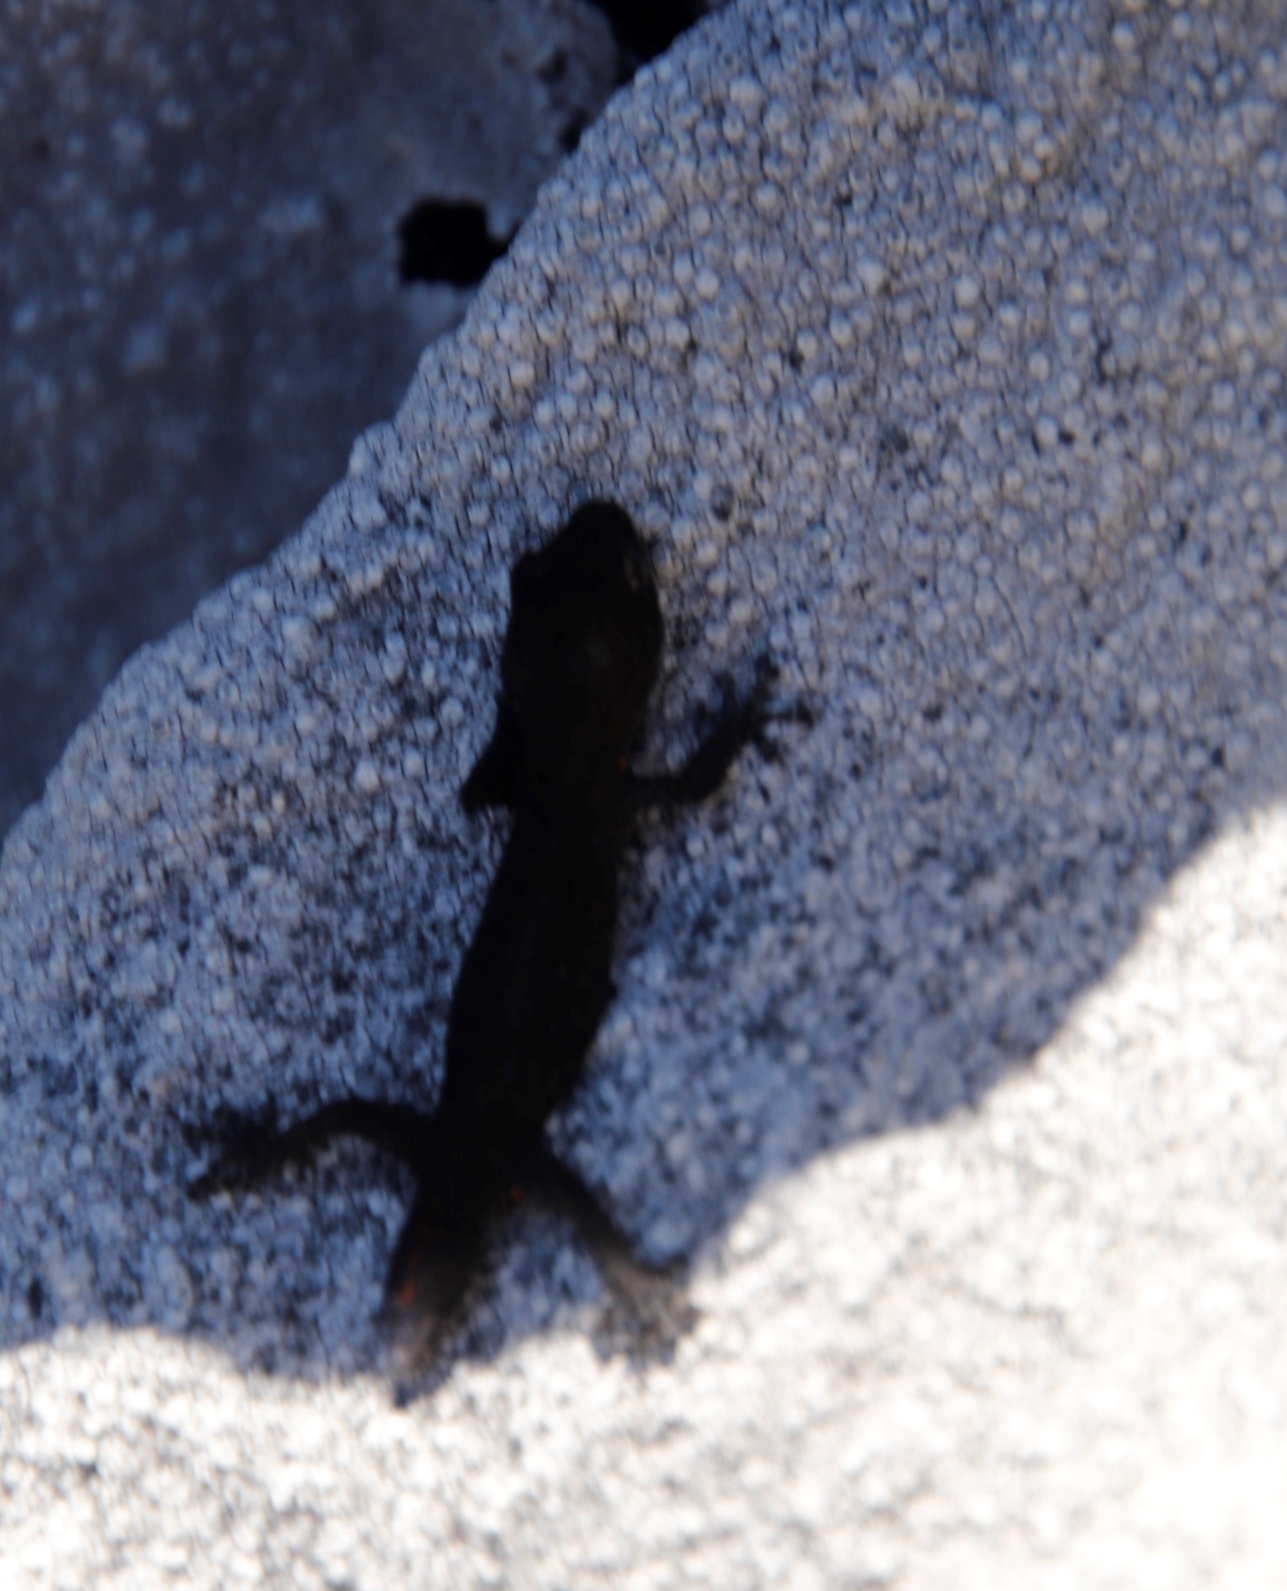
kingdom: Animalia
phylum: Chordata
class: Squamata
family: Gekkonidae
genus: Afrogecko
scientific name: Afrogecko porphyreus
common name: Marbled leaf-toed gecko
